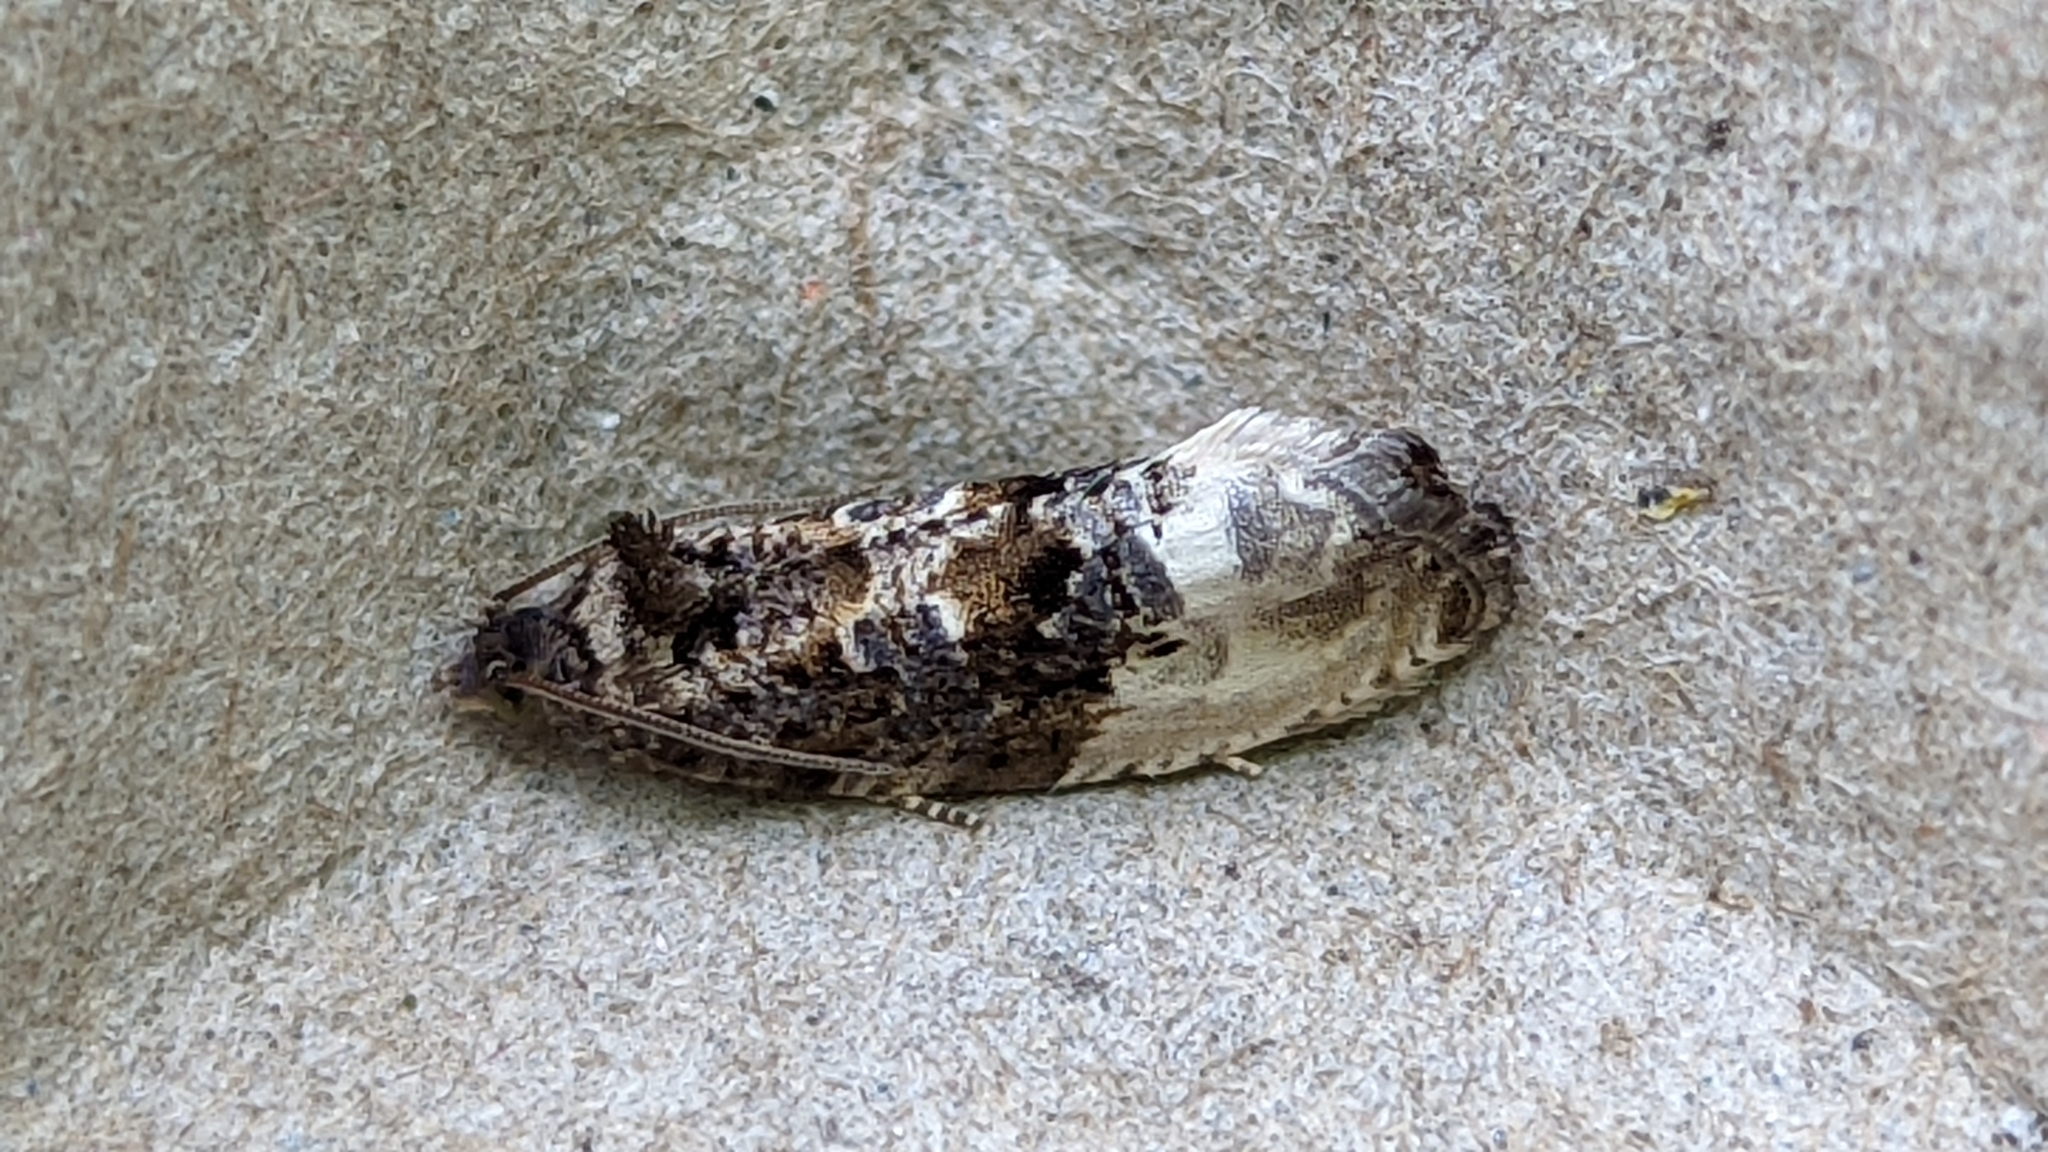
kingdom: Animalia
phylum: Arthropoda
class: Insecta
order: Lepidoptera
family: Tortricidae
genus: Hedya
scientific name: Hedya nubiferana
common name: Marbled orchard tortrix
